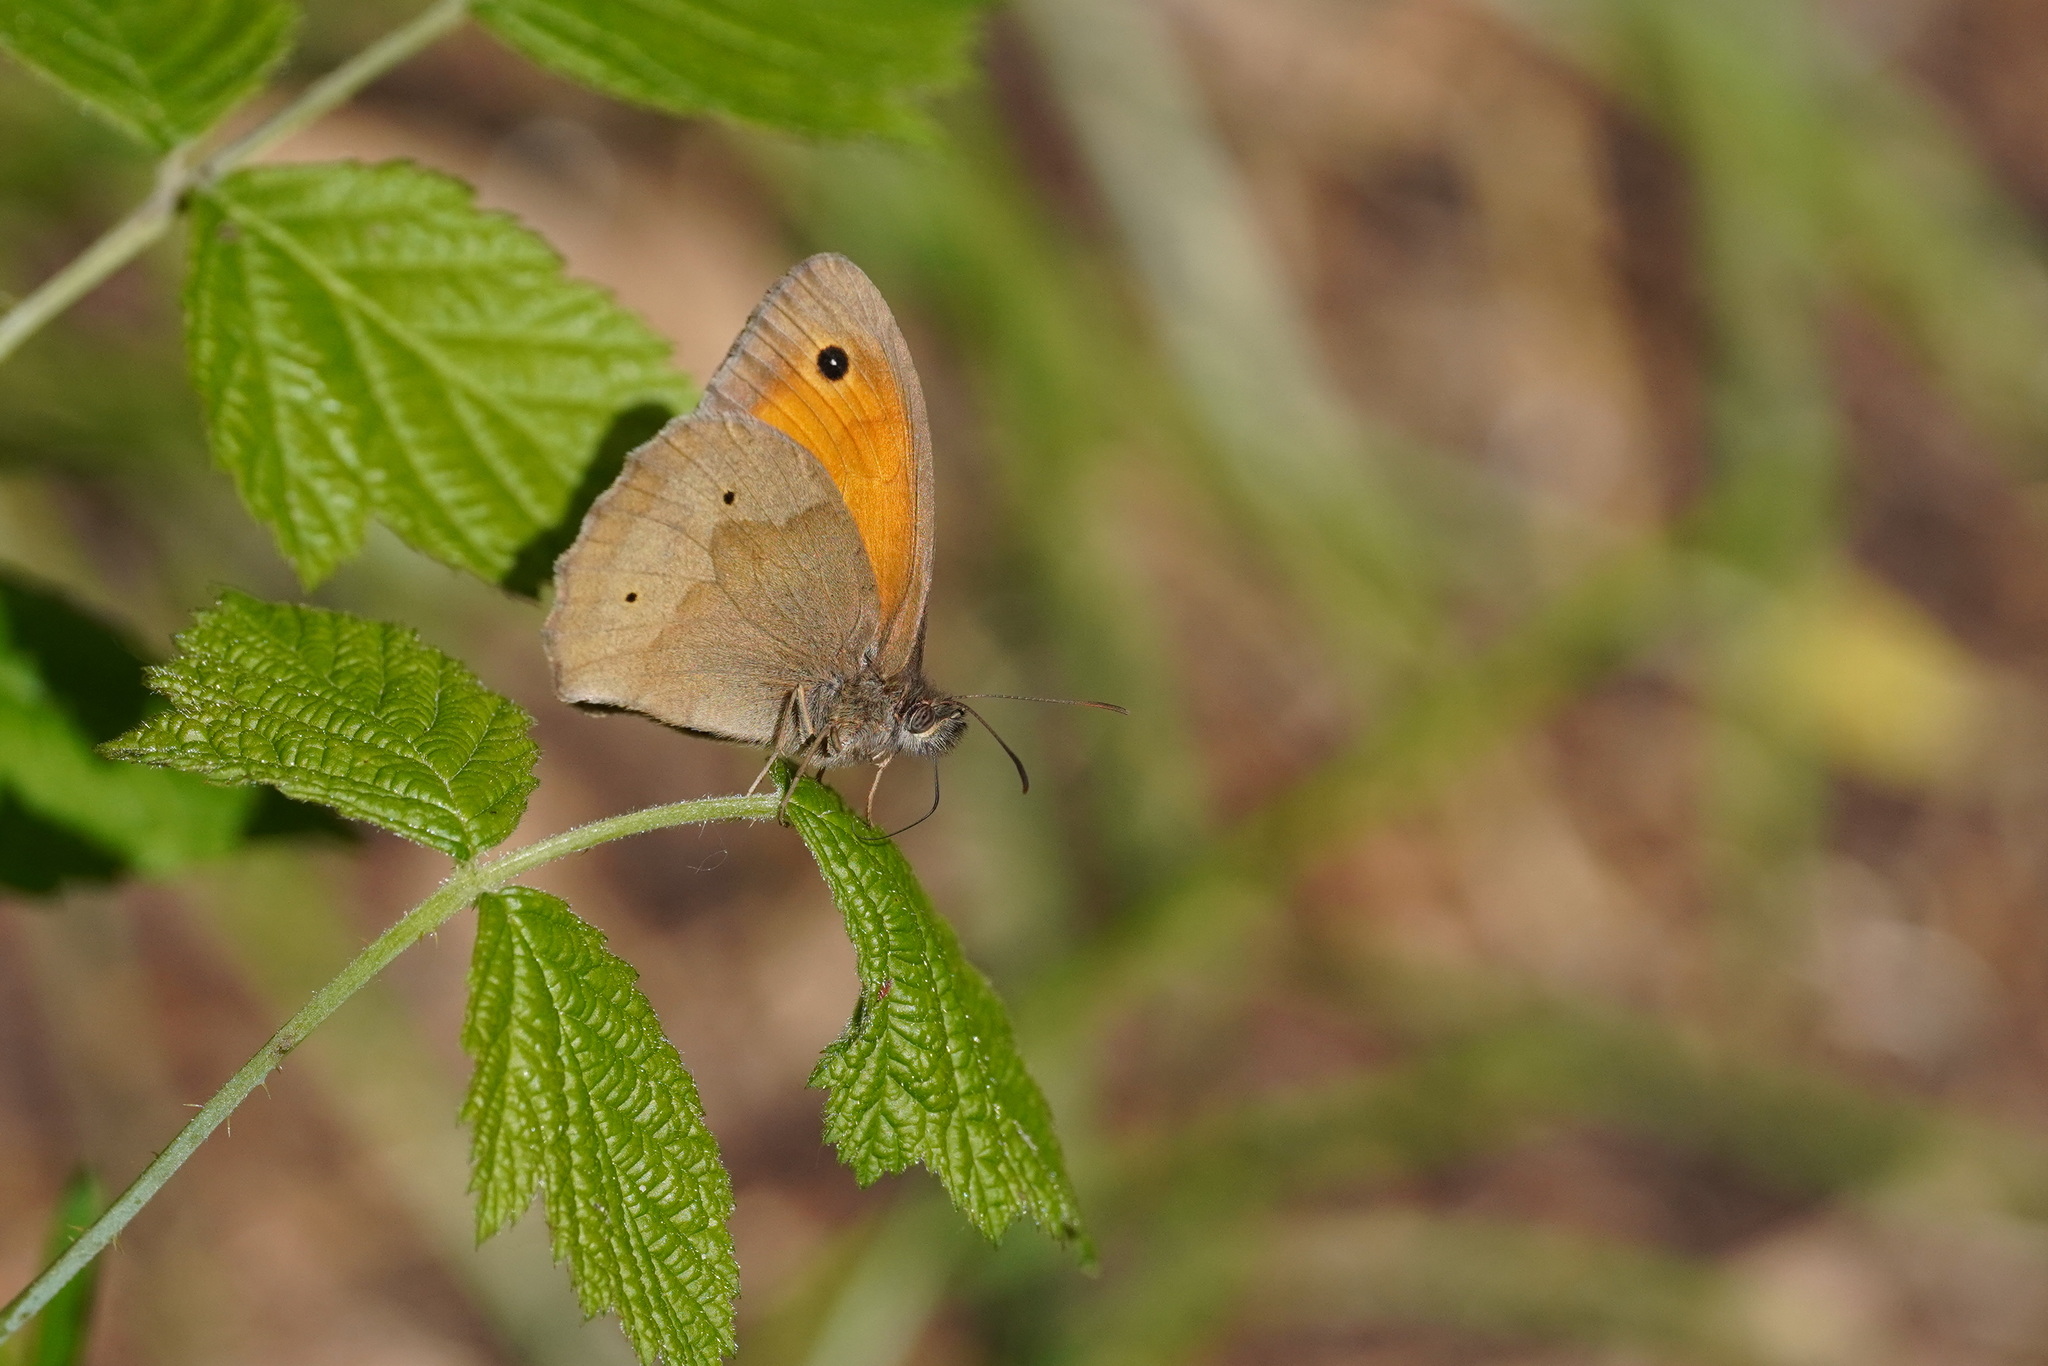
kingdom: Animalia
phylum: Arthropoda
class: Insecta
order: Lepidoptera
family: Nymphalidae
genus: Maniola
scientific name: Maniola jurtina
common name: Meadow brown
